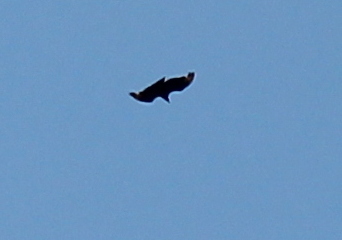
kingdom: Animalia
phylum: Chordata
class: Aves
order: Accipitriformes
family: Cathartidae
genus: Coragyps
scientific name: Coragyps atratus
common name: Black vulture
